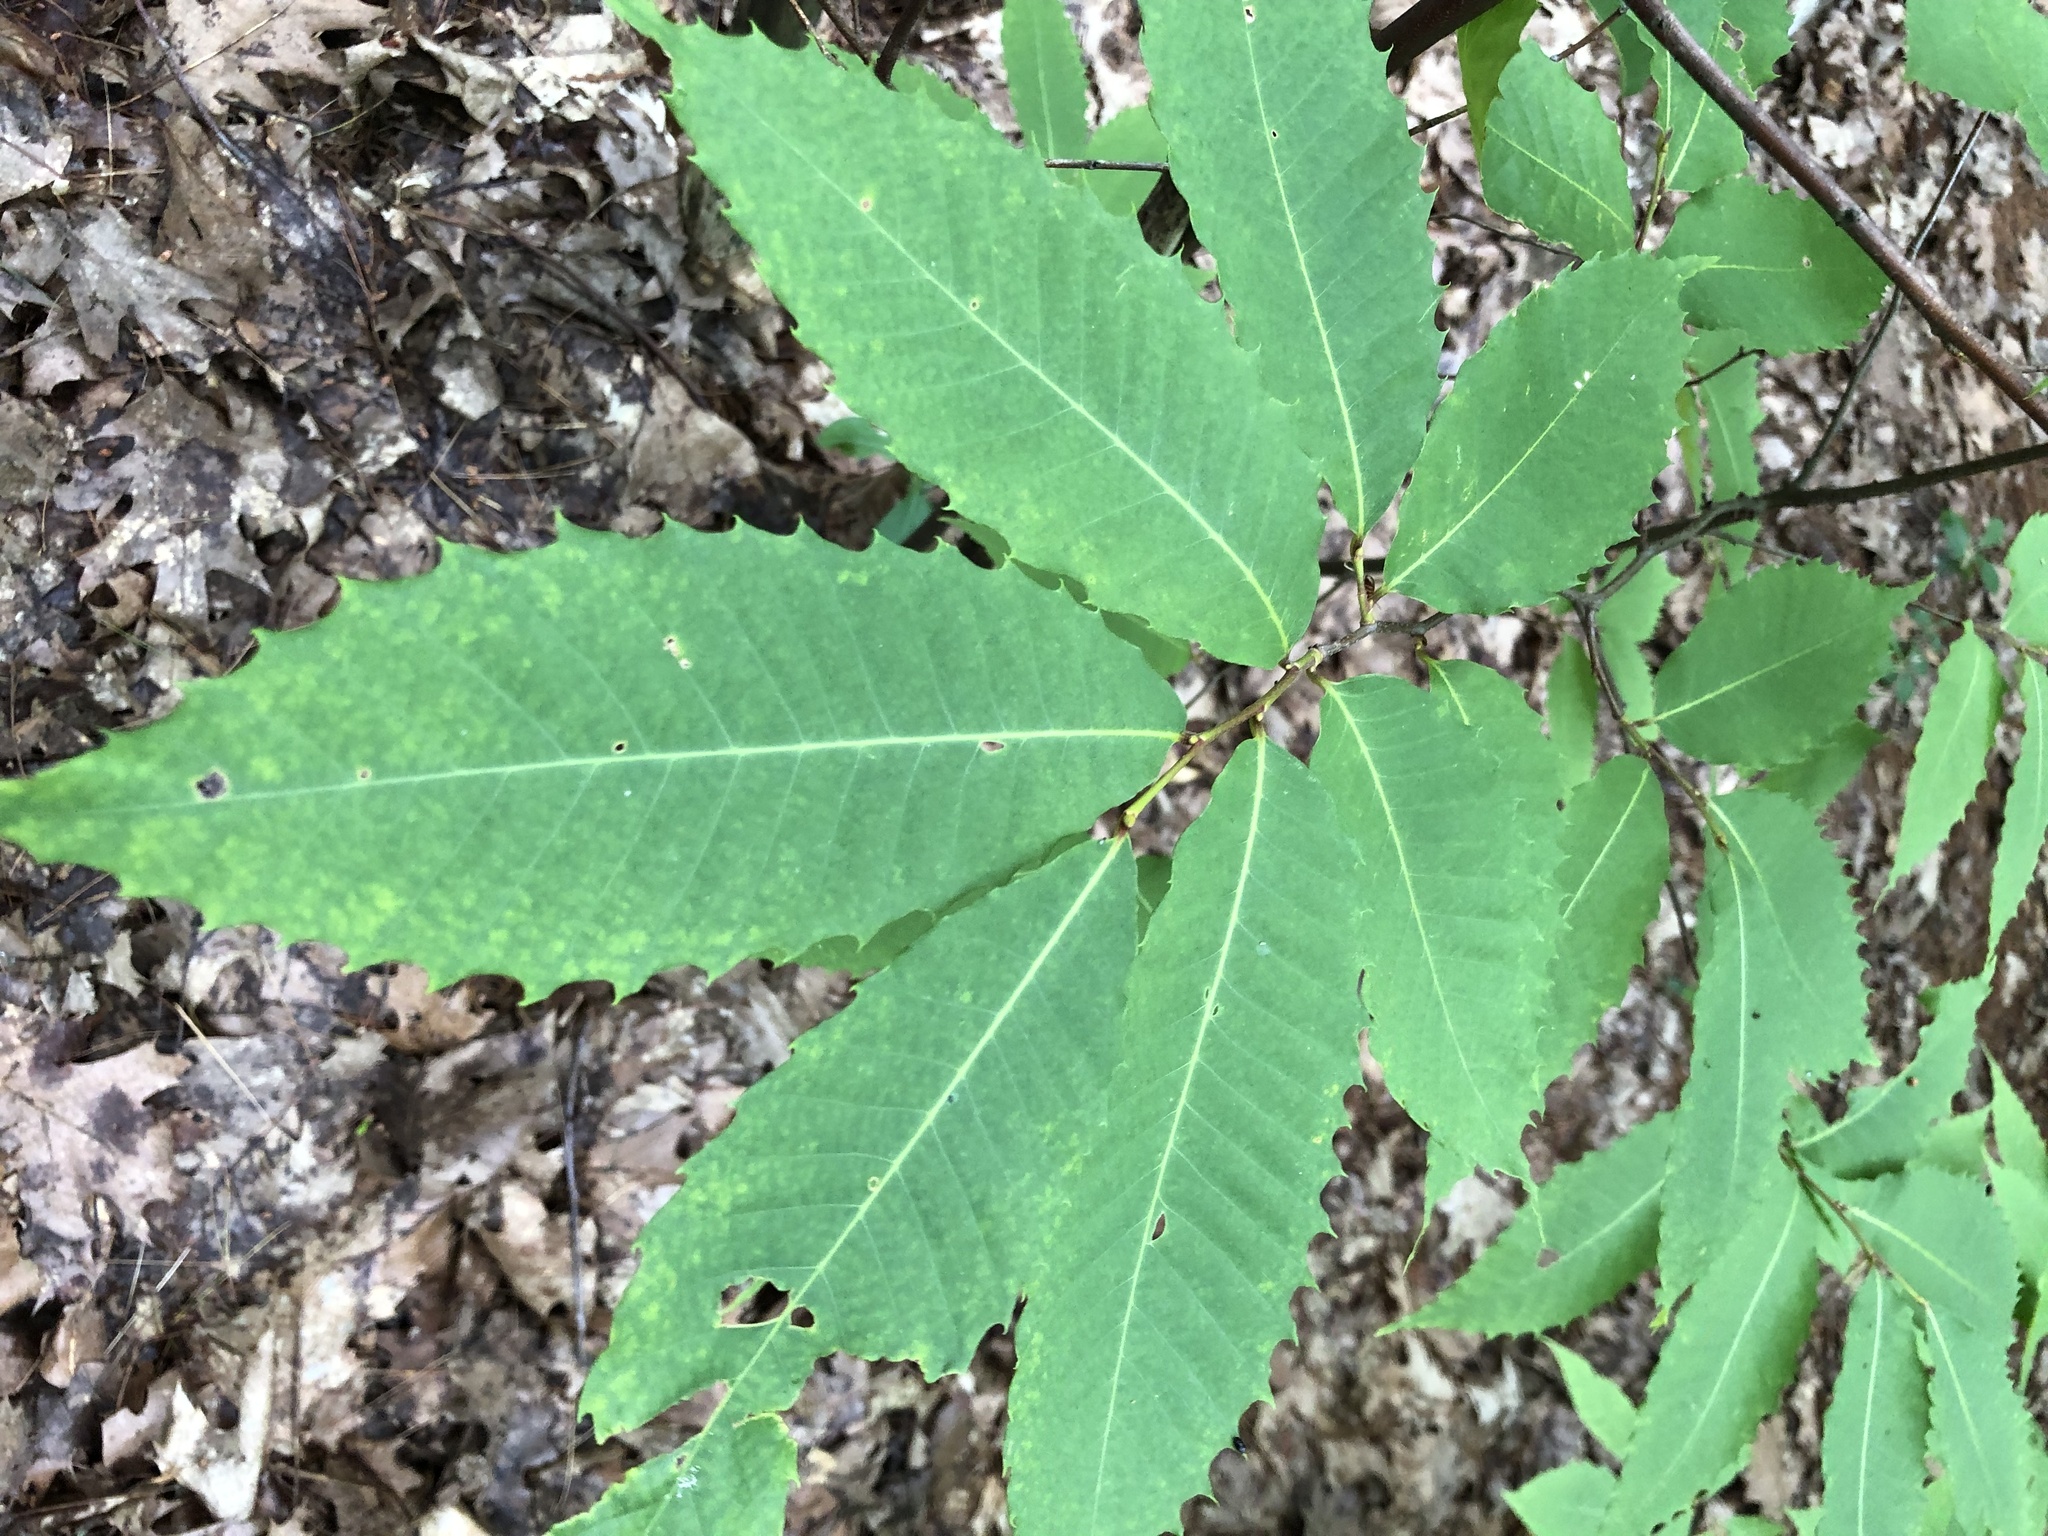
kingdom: Plantae
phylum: Tracheophyta
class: Magnoliopsida
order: Fagales
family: Fagaceae
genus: Castanea
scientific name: Castanea dentata
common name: American chestnut
